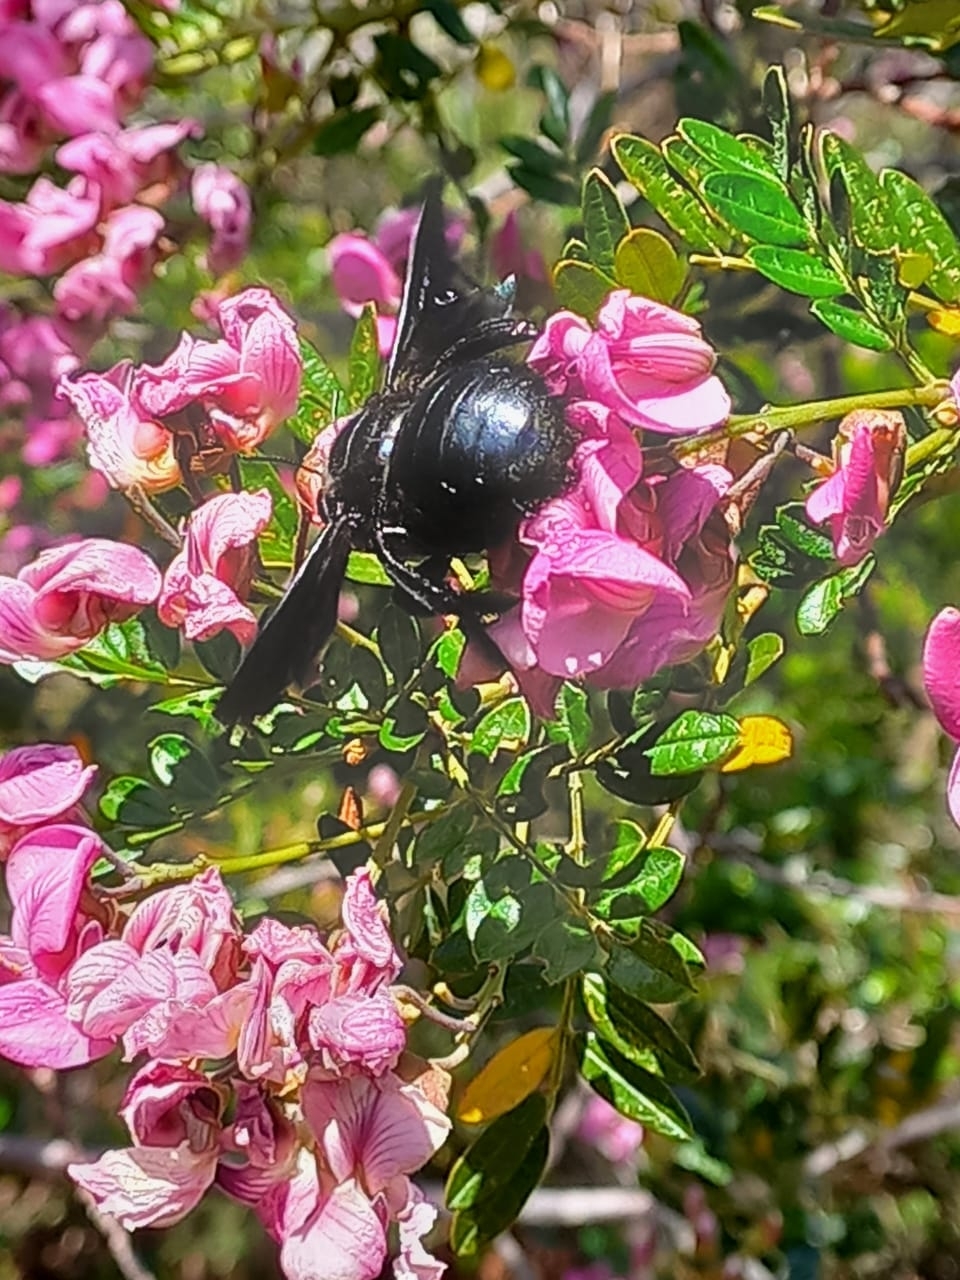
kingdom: Animalia
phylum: Arthropoda
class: Insecta
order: Hymenoptera
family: Apidae
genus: Xylocopa
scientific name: Xylocopa flavorufa
